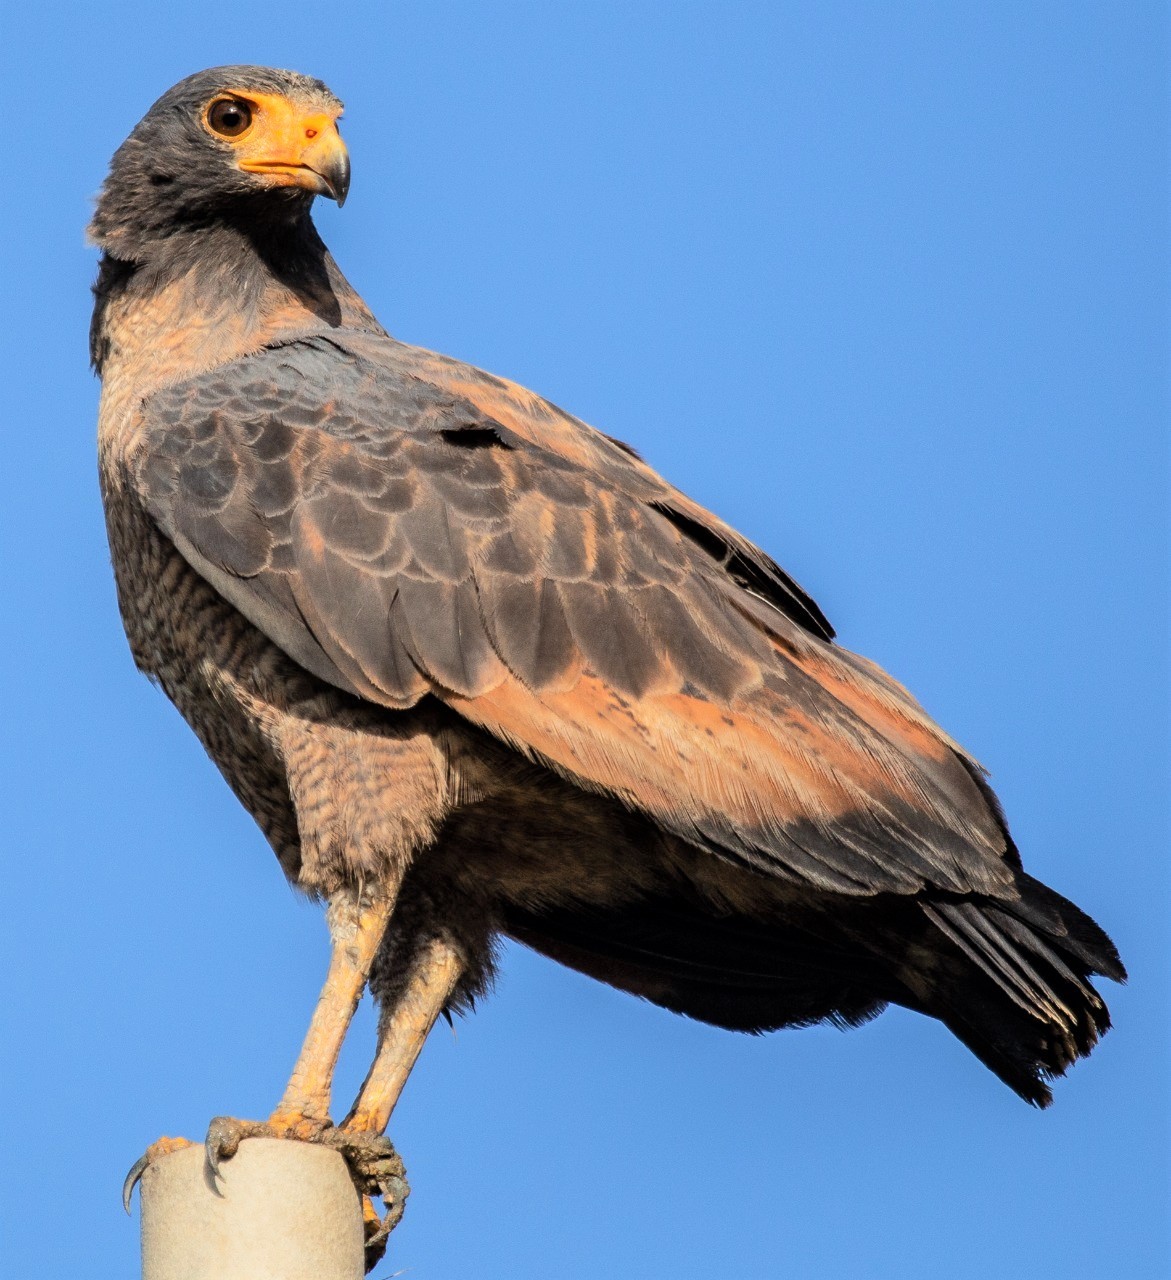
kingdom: Animalia
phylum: Chordata
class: Aves
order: Accipitriformes
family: Accipitridae
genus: Buteogallus
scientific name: Buteogallus aequinoctialis
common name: Rufous crab hawk
